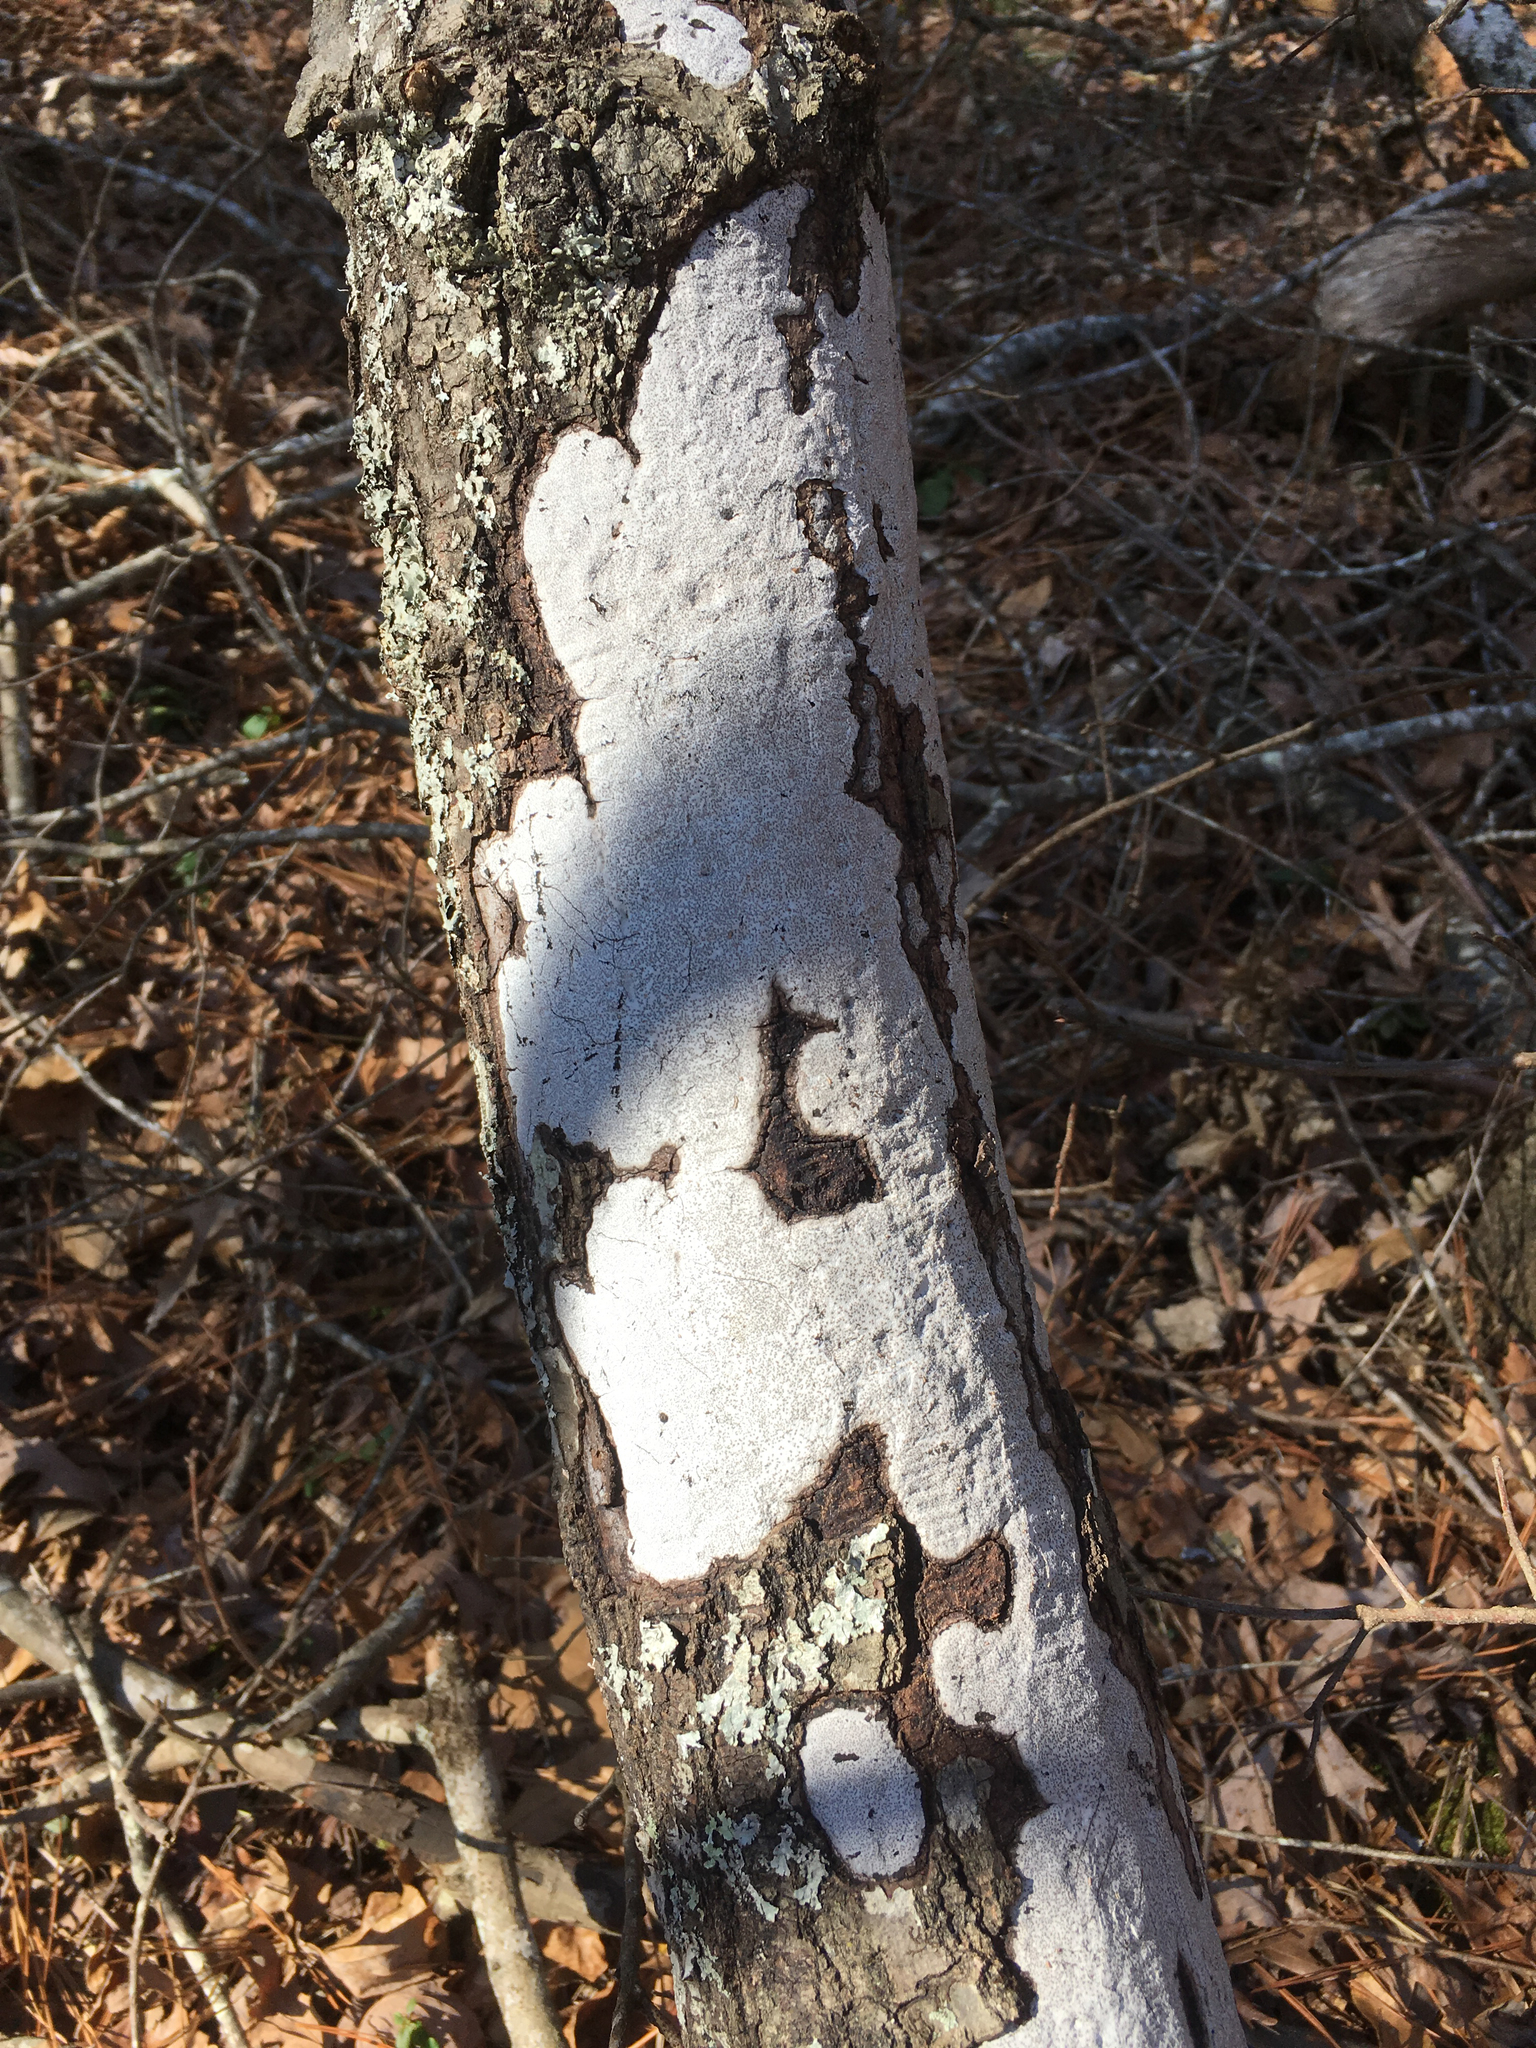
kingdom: Fungi
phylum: Ascomycota
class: Sordariomycetes
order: Xylariales
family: Graphostromataceae
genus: Biscogniauxia
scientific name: Biscogniauxia atropunctata
